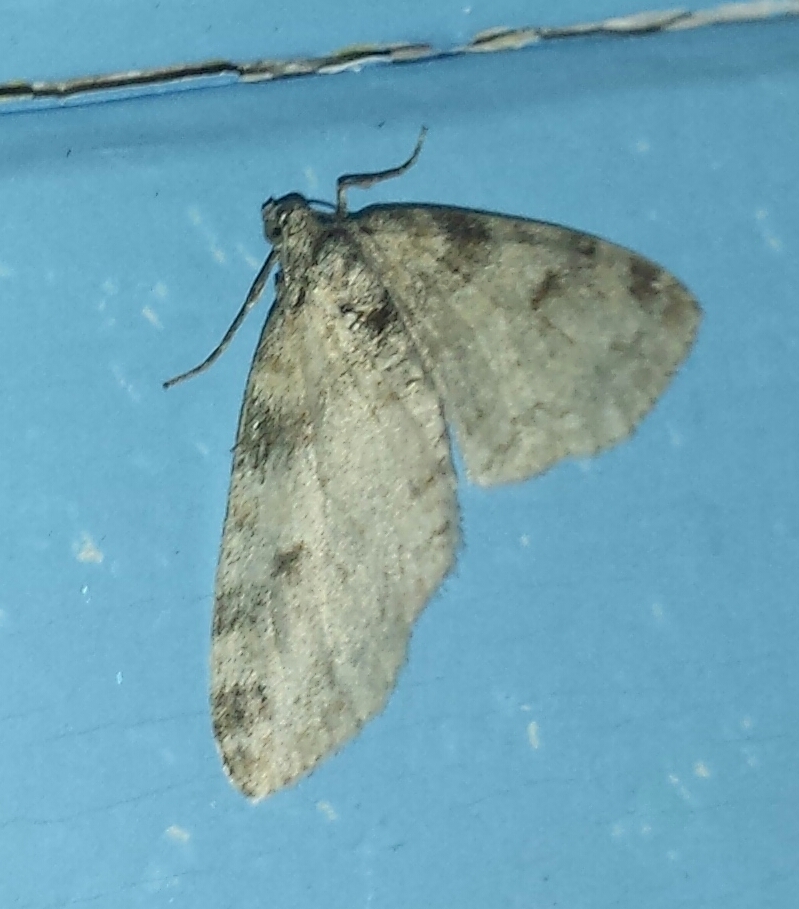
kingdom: Animalia
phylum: Arthropoda
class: Insecta
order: Lepidoptera
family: Geometridae
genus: Lobophora
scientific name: Lobophora nivigerata
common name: Powdered bigwing
